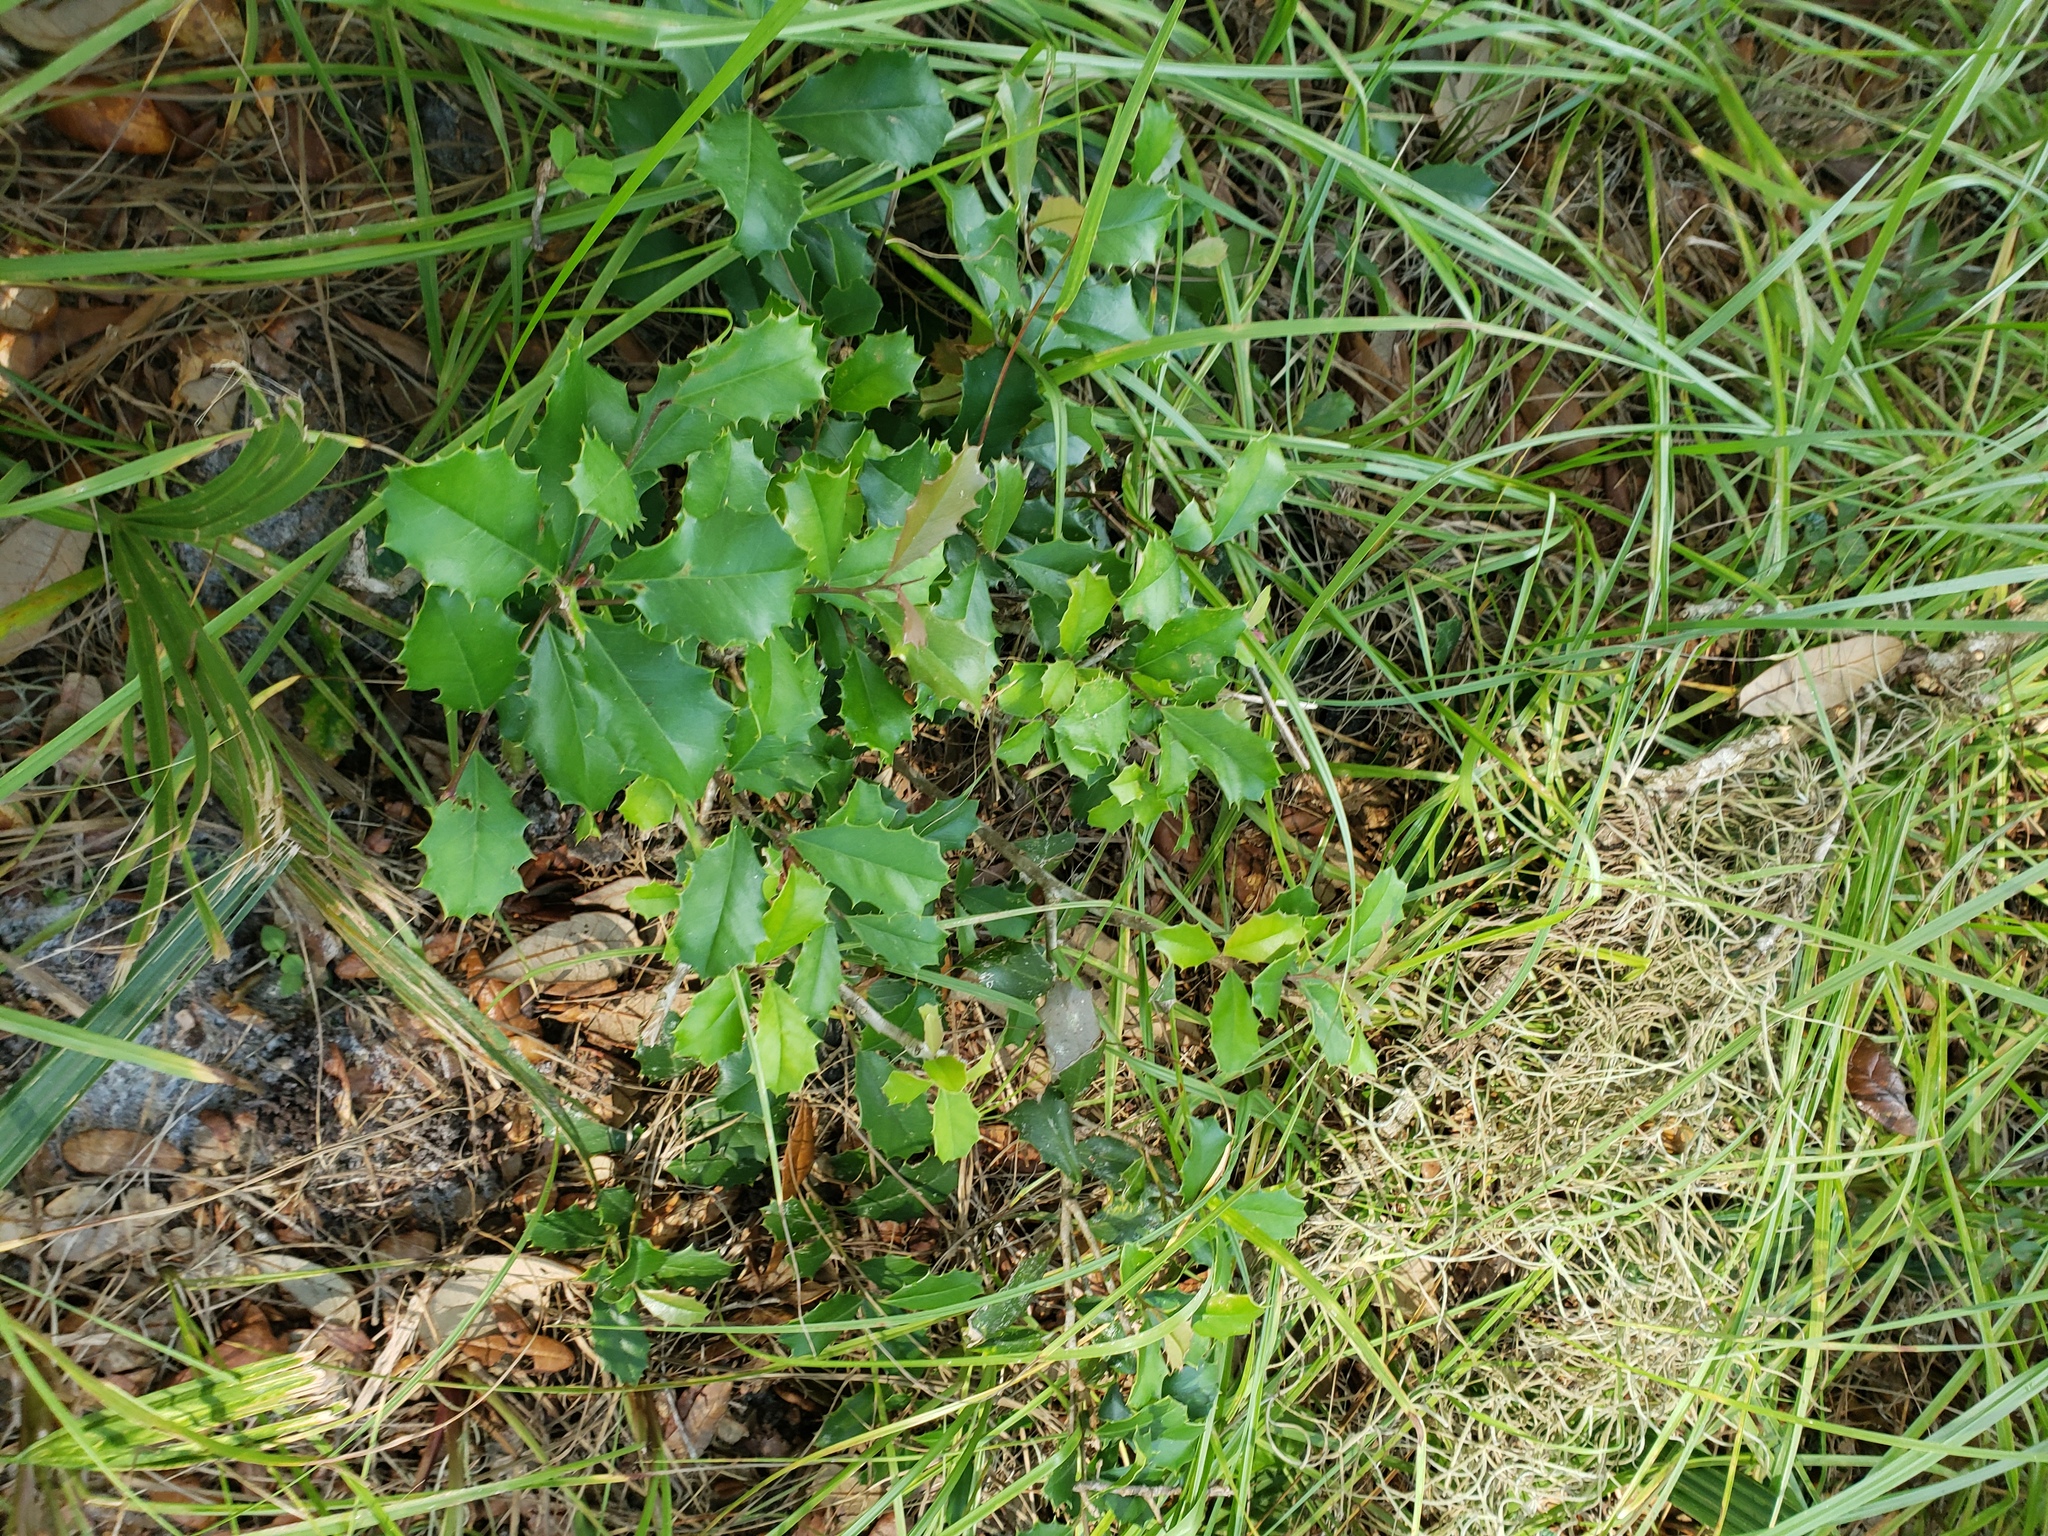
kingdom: Plantae
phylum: Tracheophyta
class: Magnoliopsida
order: Aquifoliales
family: Aquifoliaceae
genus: Ilex
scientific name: Ilex opaca
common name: American holly
